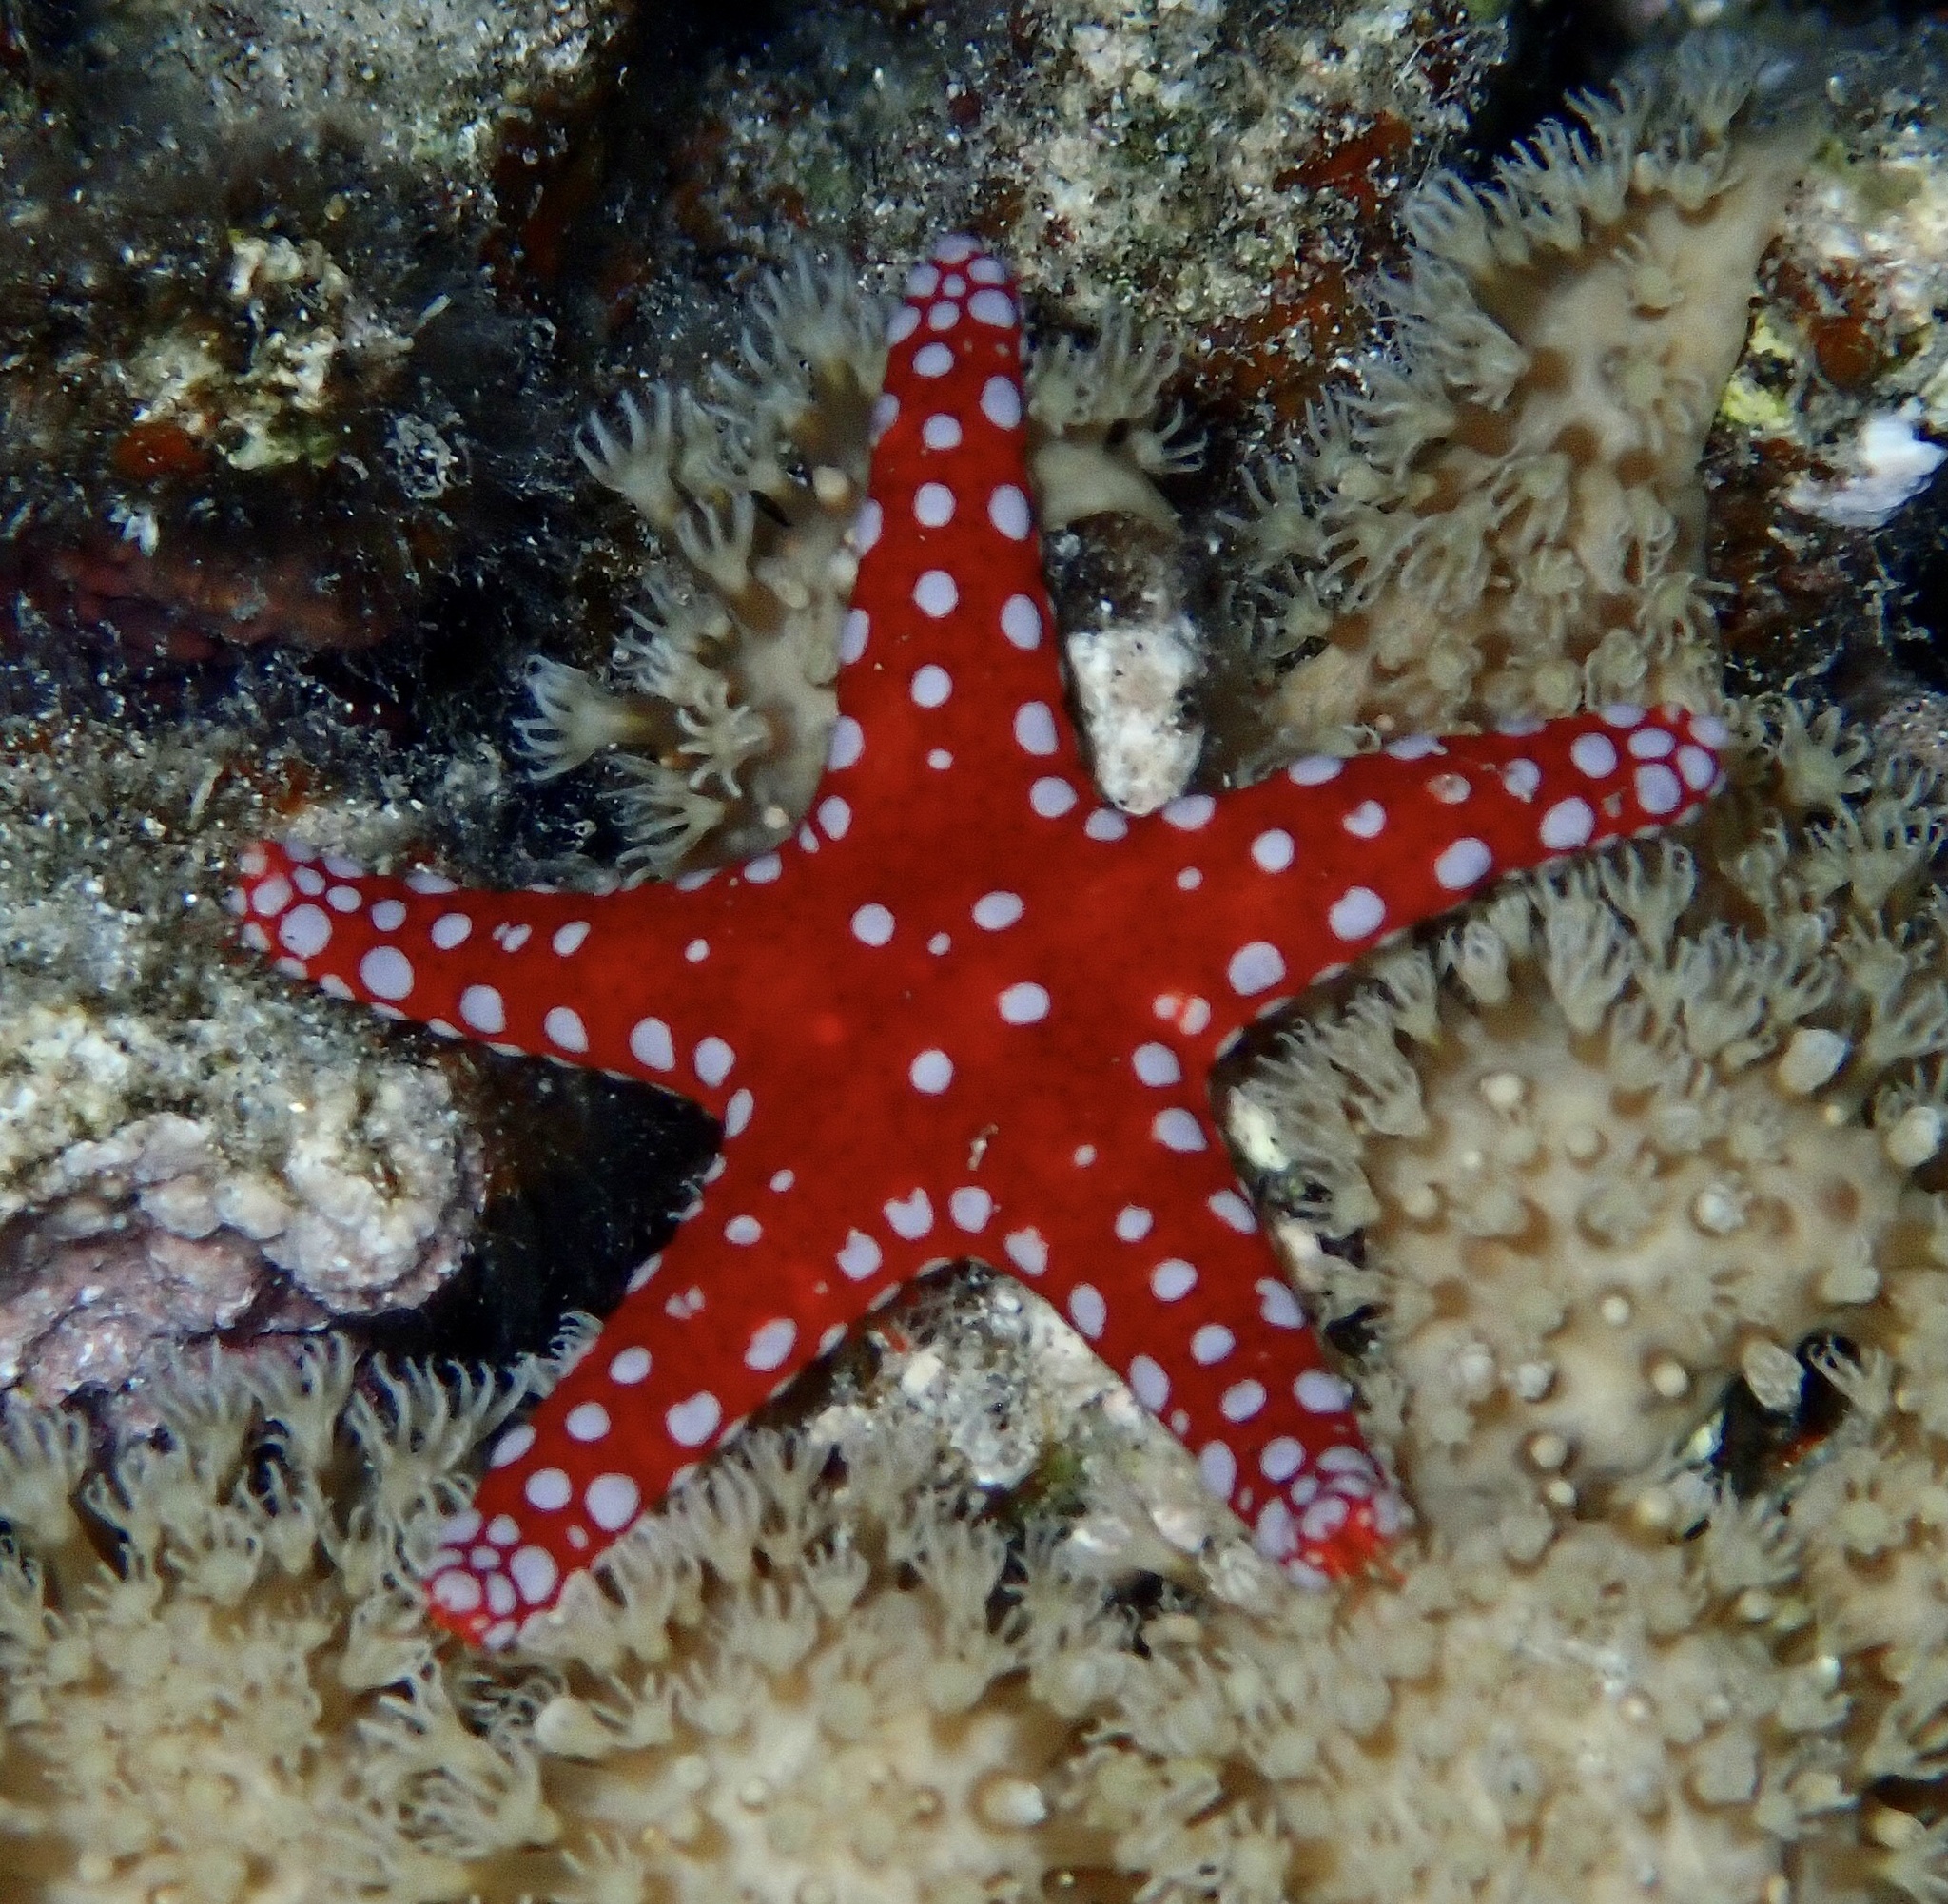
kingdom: Animalia
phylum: Echinodermata
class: Asteroidea
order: Valvatida
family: Goniasteridae
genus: Fromia
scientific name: Fromia ghardaqana
